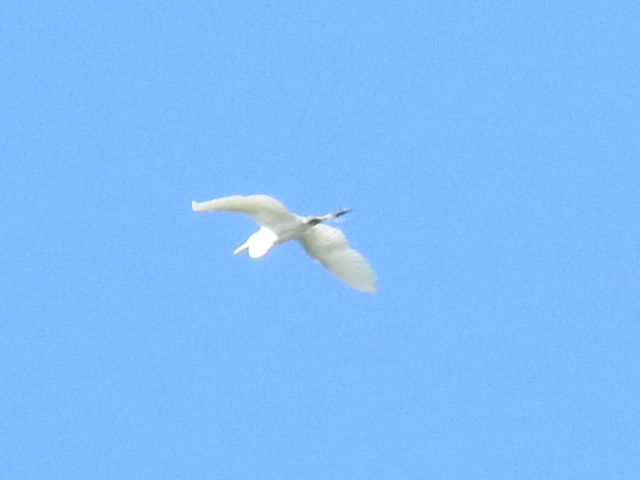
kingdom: Animalia
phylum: Chordata
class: Aves
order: Pelecaniformes
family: Ardeidae
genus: Ardea
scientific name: Ardea alba
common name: Great egret
